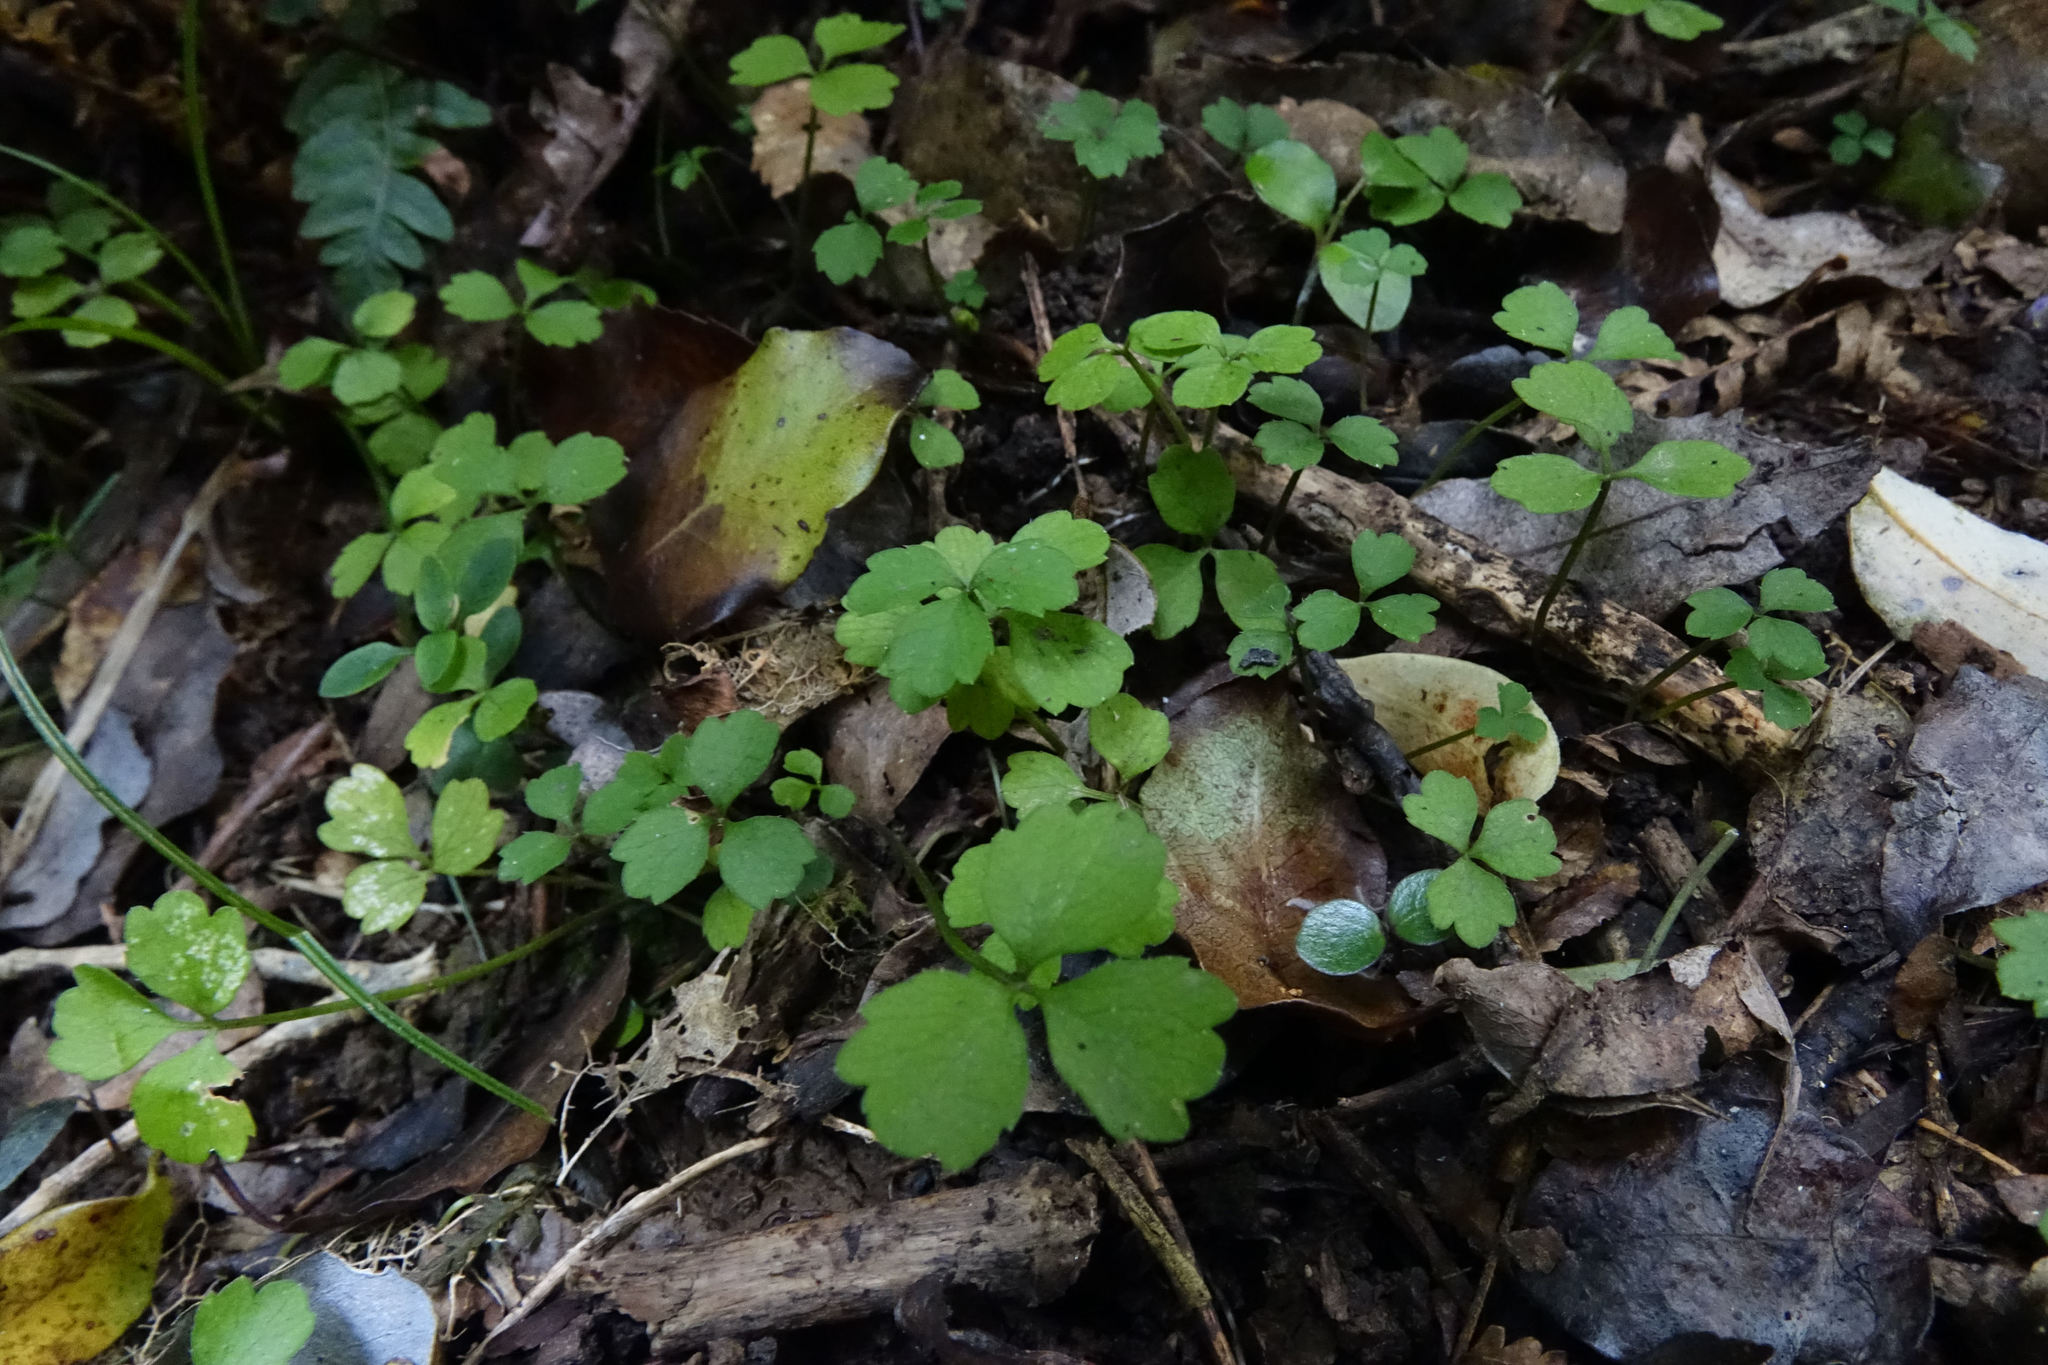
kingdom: Plantae
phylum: Tracheophyta
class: Magnoliopsida
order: Apiales
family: Apiaceae
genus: Azorella
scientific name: Azorella hookeri
